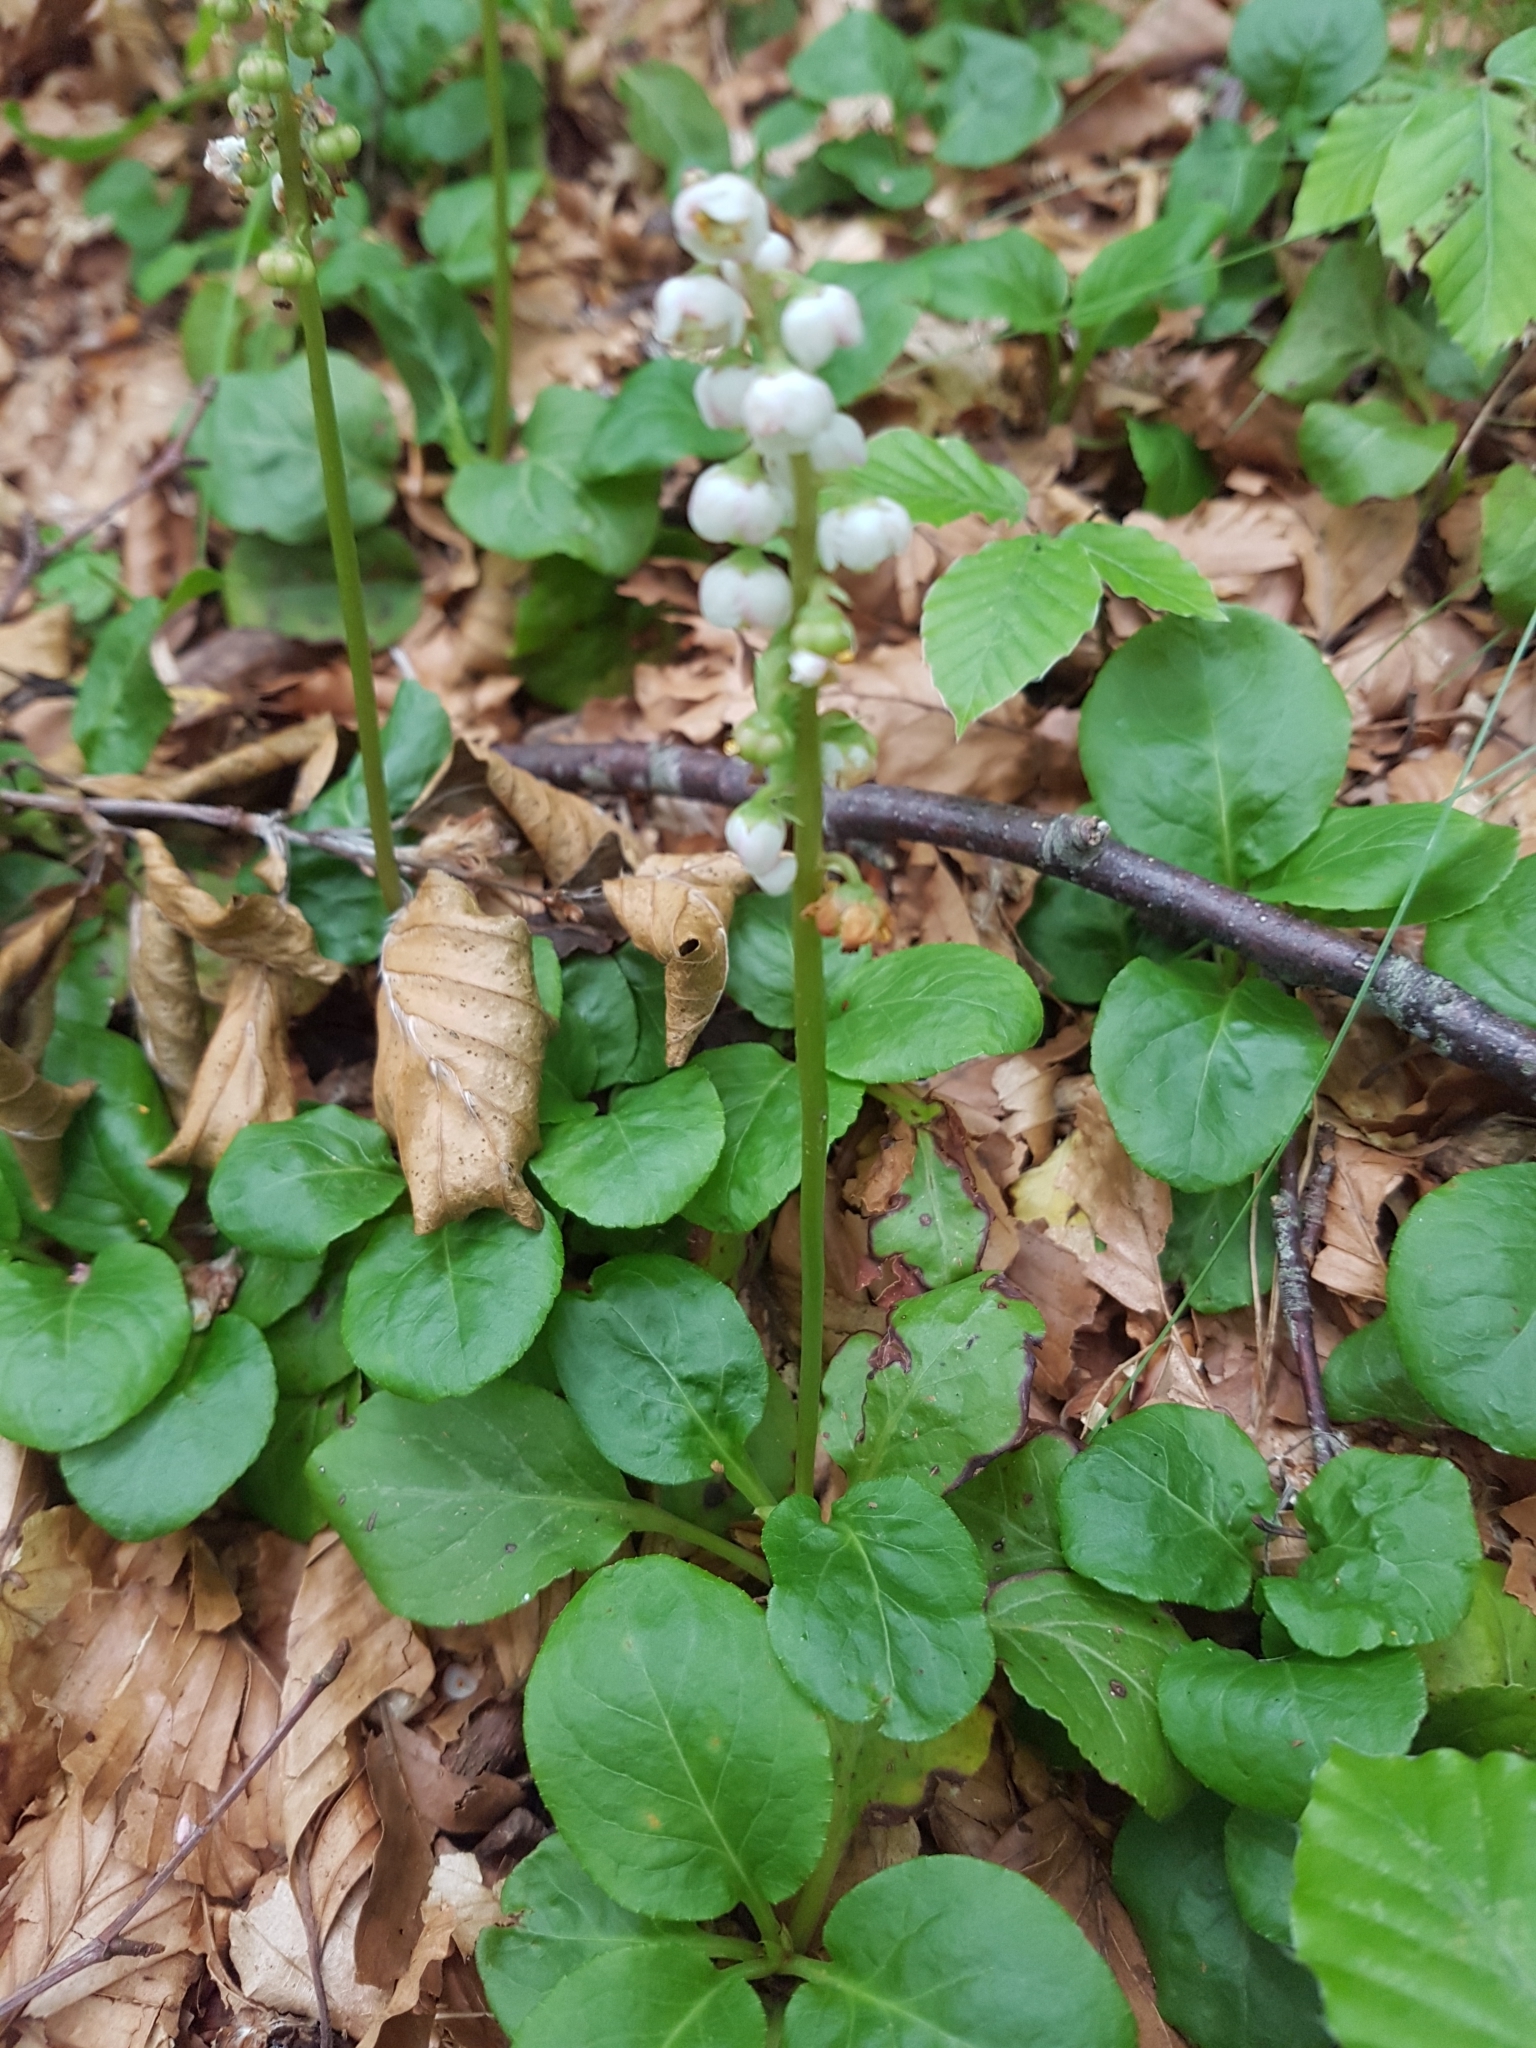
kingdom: Plantae
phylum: Tracheophyta
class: Magnoliopsida
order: Ericales
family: Ericaceae
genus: Pyrola
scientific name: Pyrola minor
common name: Common wintergreen
